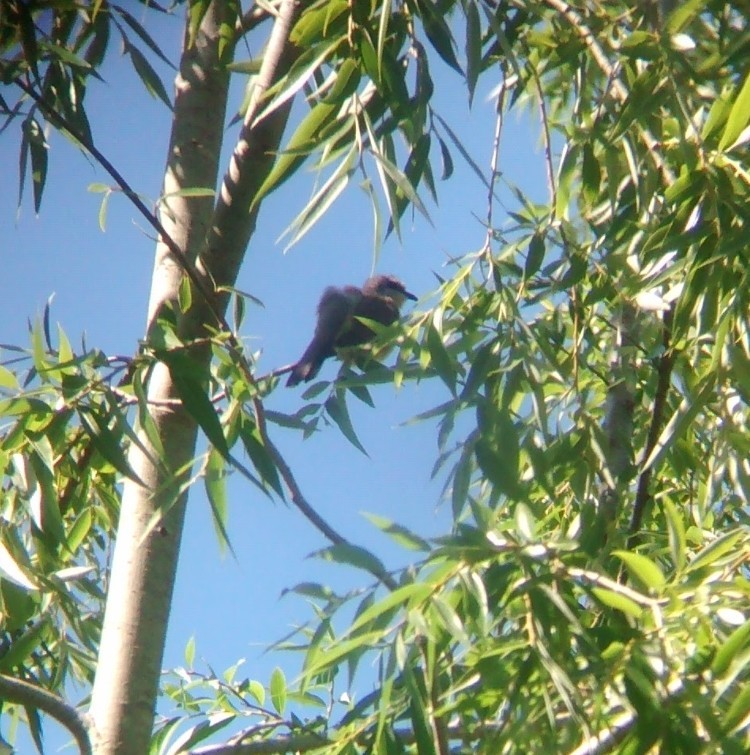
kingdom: Animalia
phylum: Chordata
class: Aves
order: Cuculiformes
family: Cuculidae
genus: Coccyzus
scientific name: Coccyzus melacoryphus
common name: Dark-billed cuckoo
